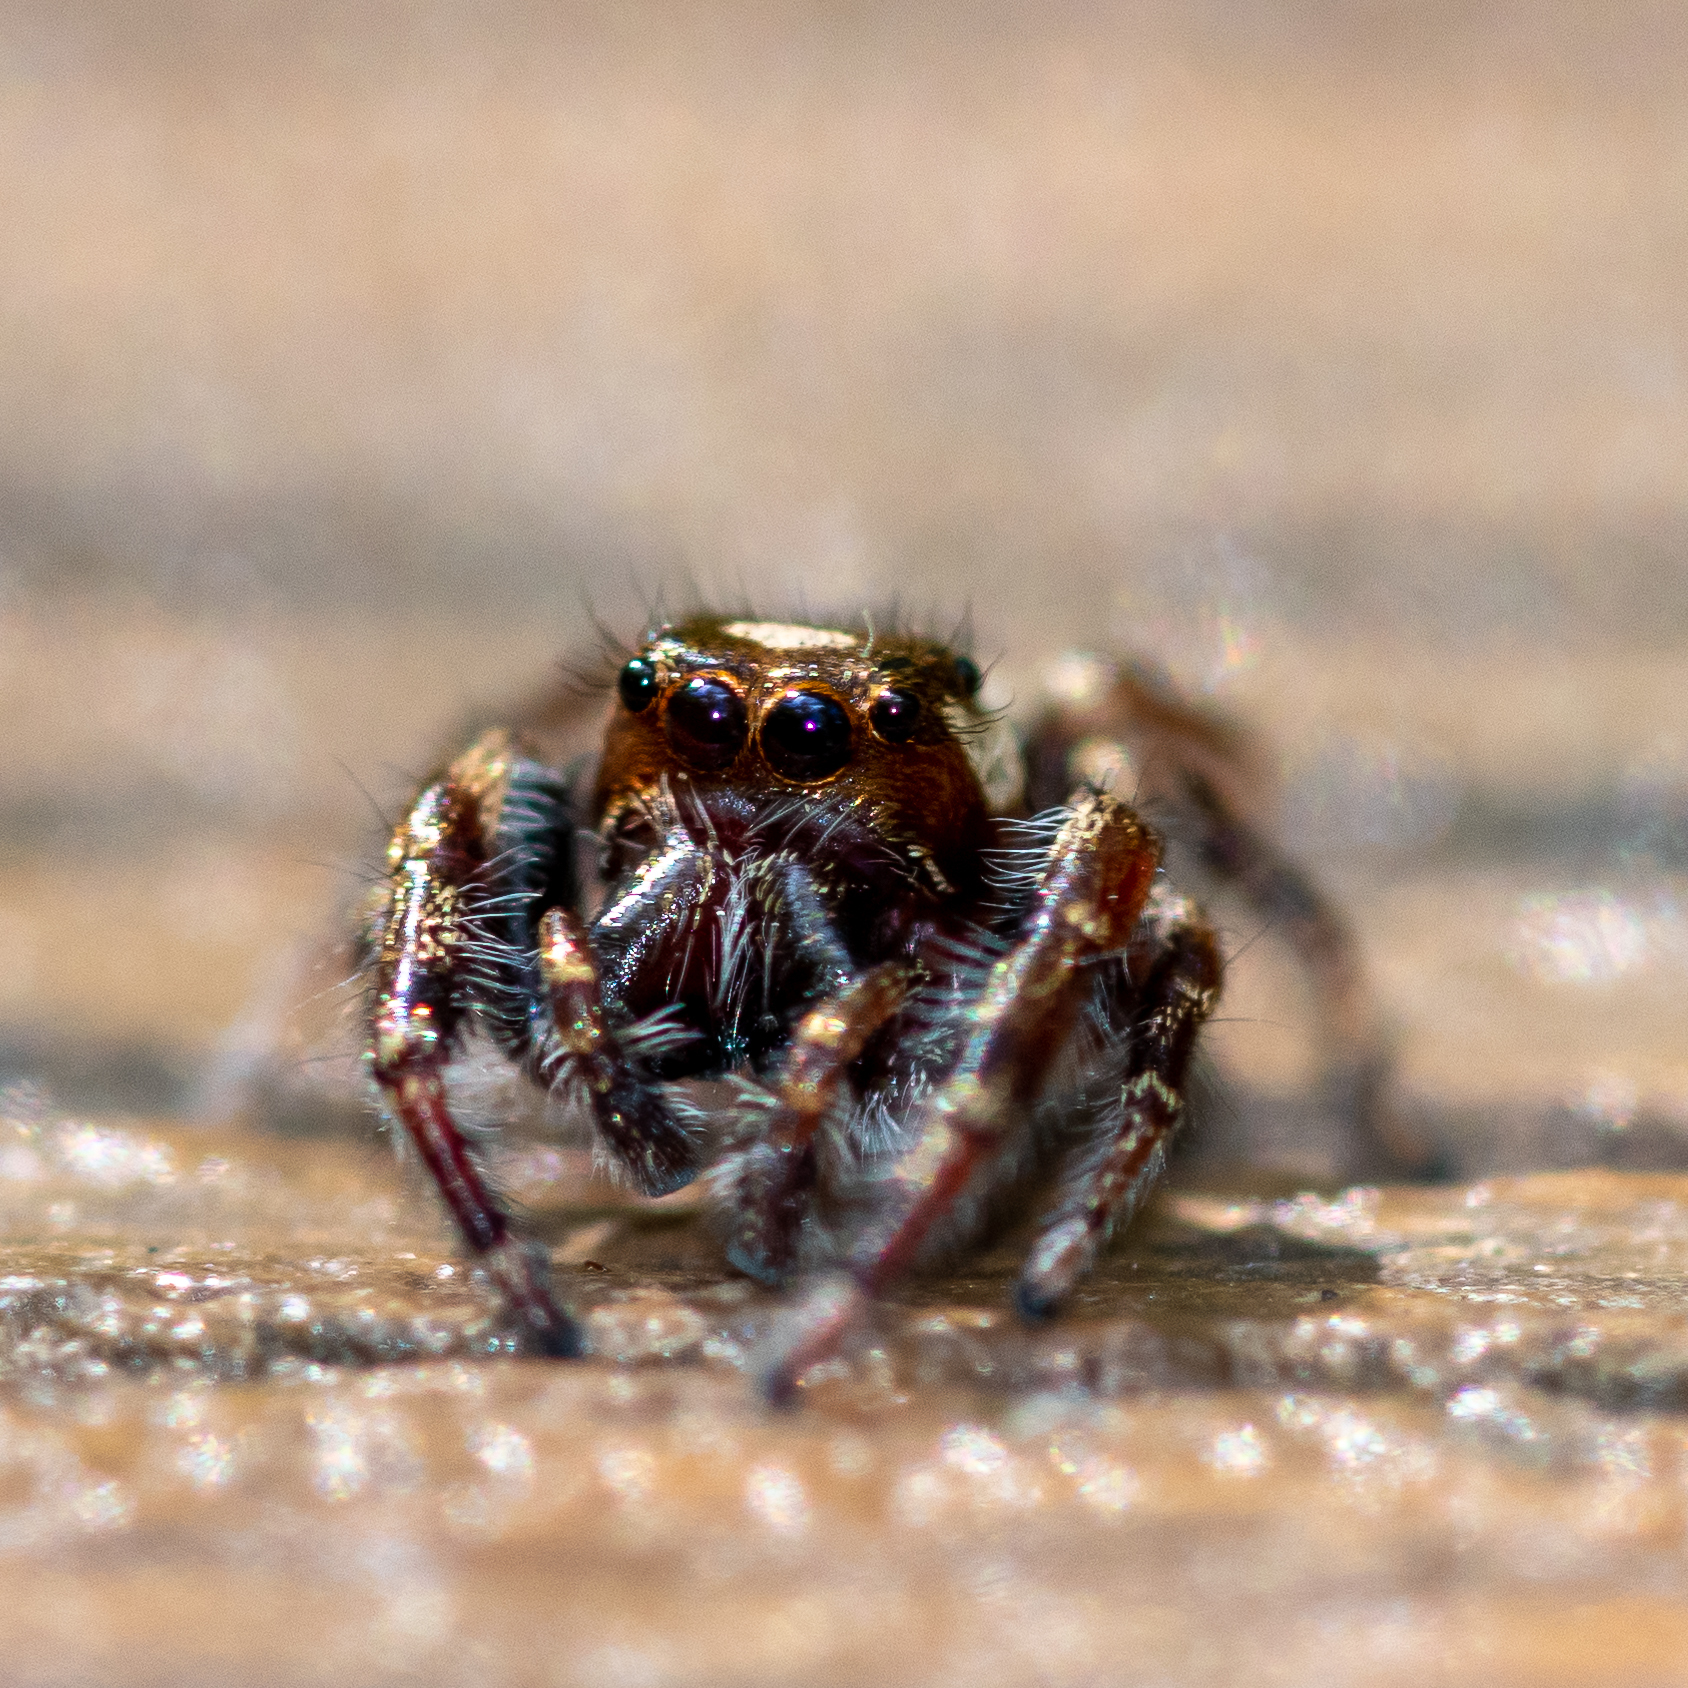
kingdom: Animalia
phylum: Arthropoda
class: Arachnida
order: Araneae
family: Salticidae
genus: Eris
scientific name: Eris militaris
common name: Bronze jumper
